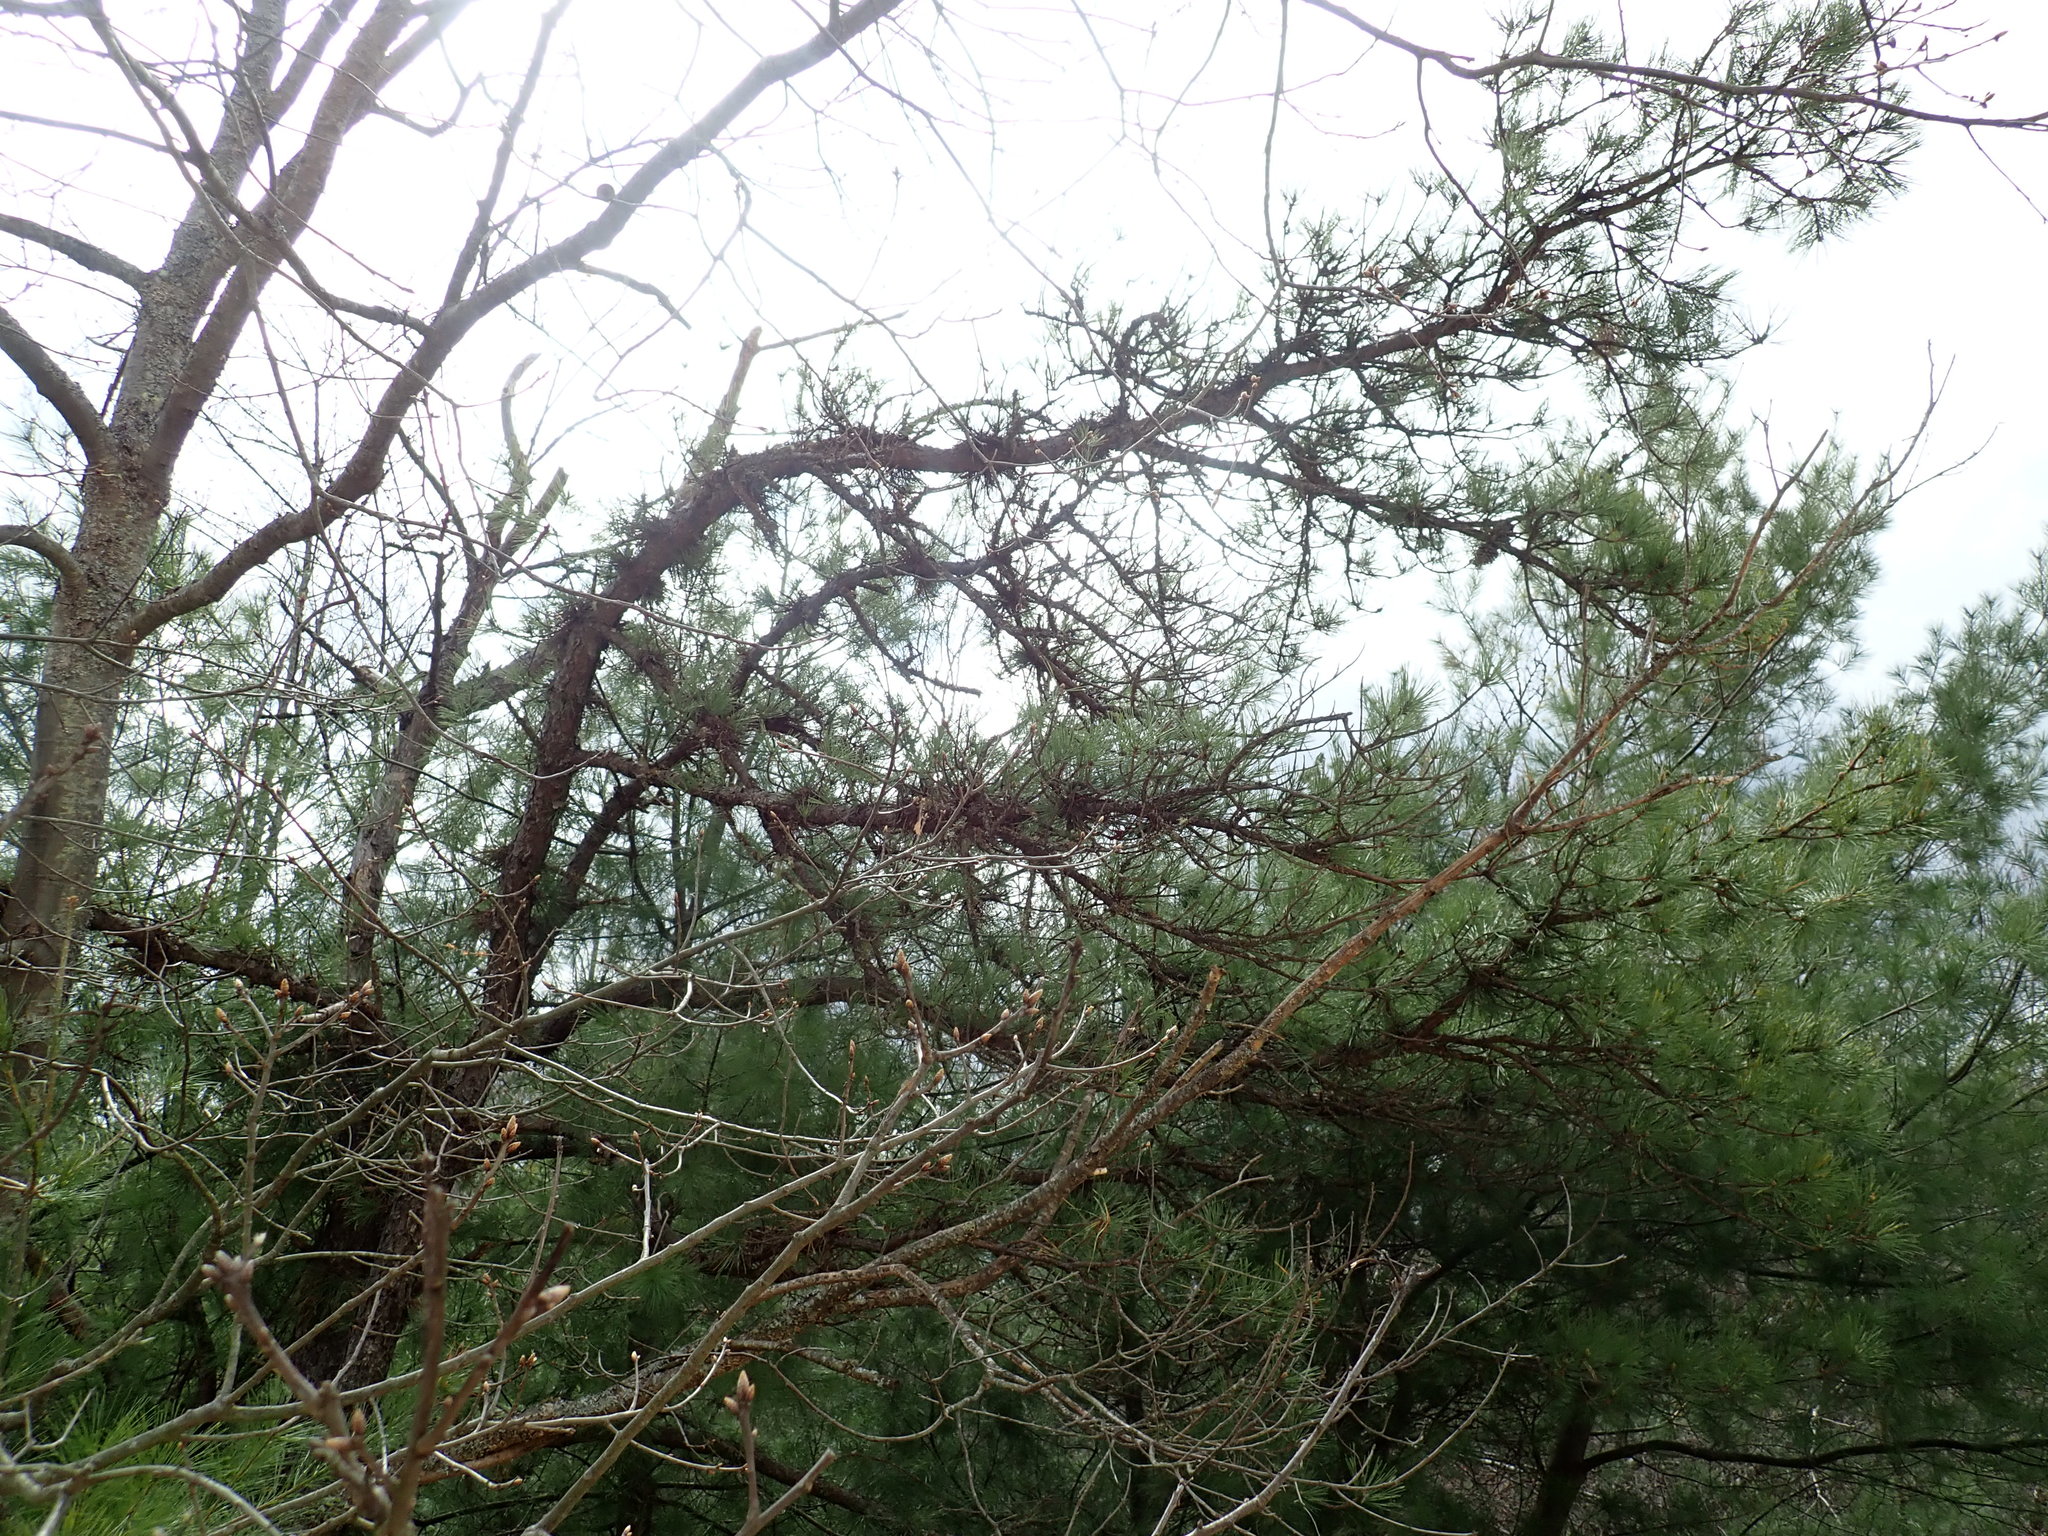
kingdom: Plantae
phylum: Tracheophyta
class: Pinopsida
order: Pinales
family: Pinaceae
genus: Pinus
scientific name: Pinus rigida
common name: Pitch pine
